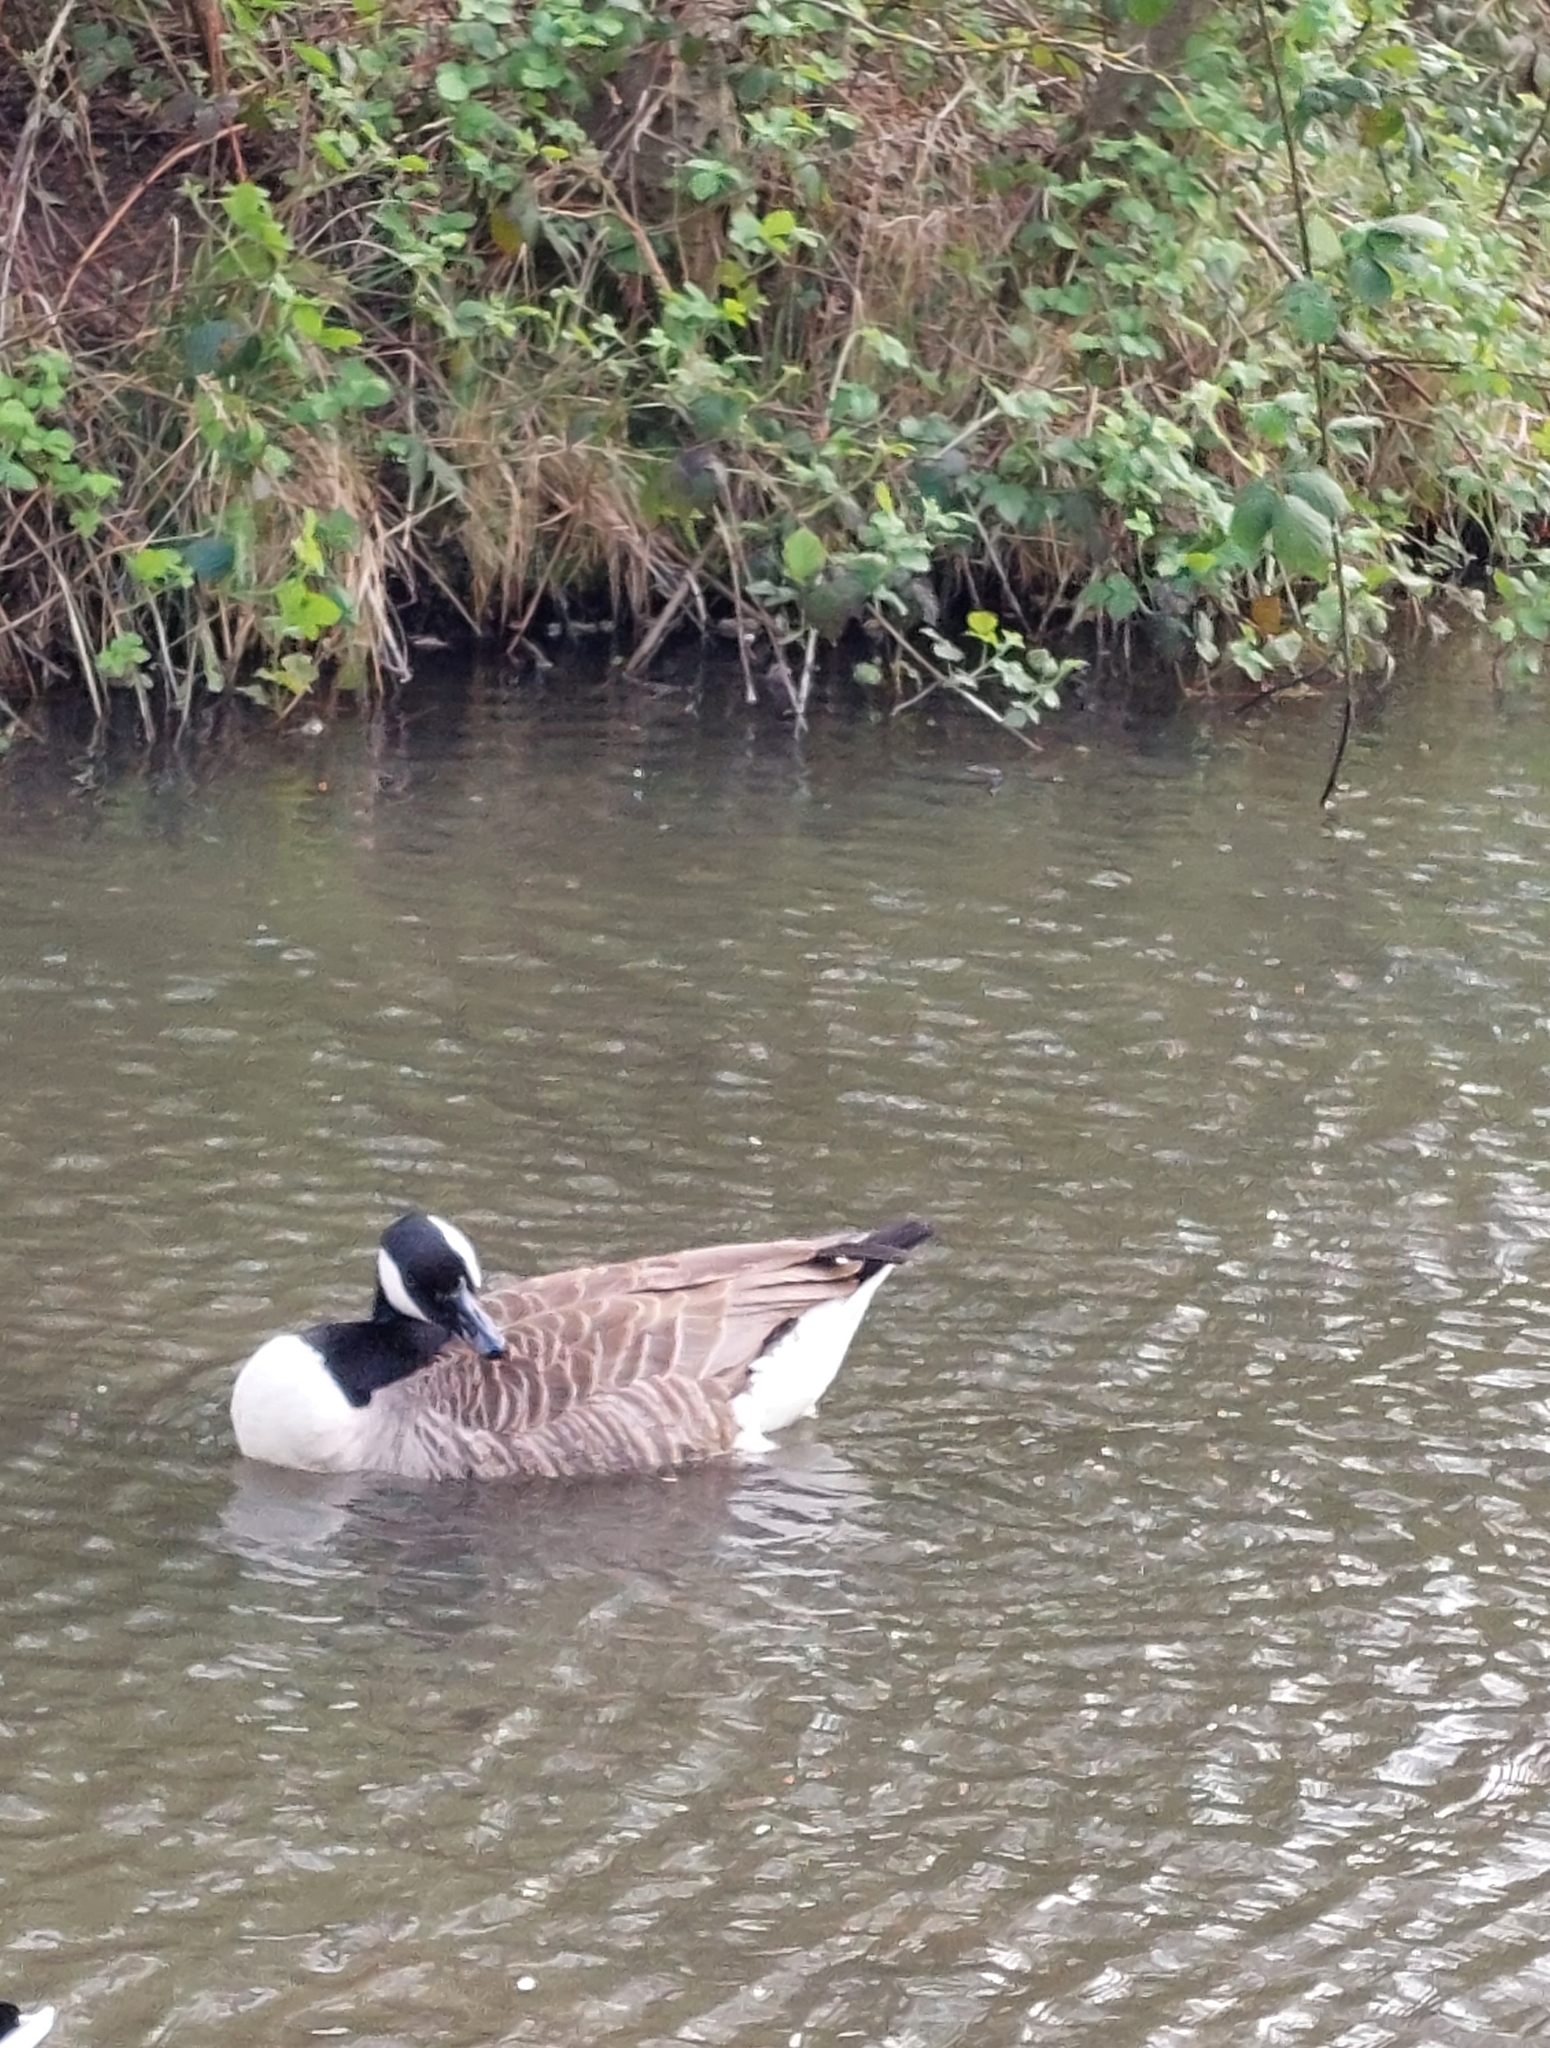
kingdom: Animalia
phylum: Chordata
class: Aves
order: Anseriformes
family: Anatidae
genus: Branta
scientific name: Branta canadensis
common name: Canada goose
